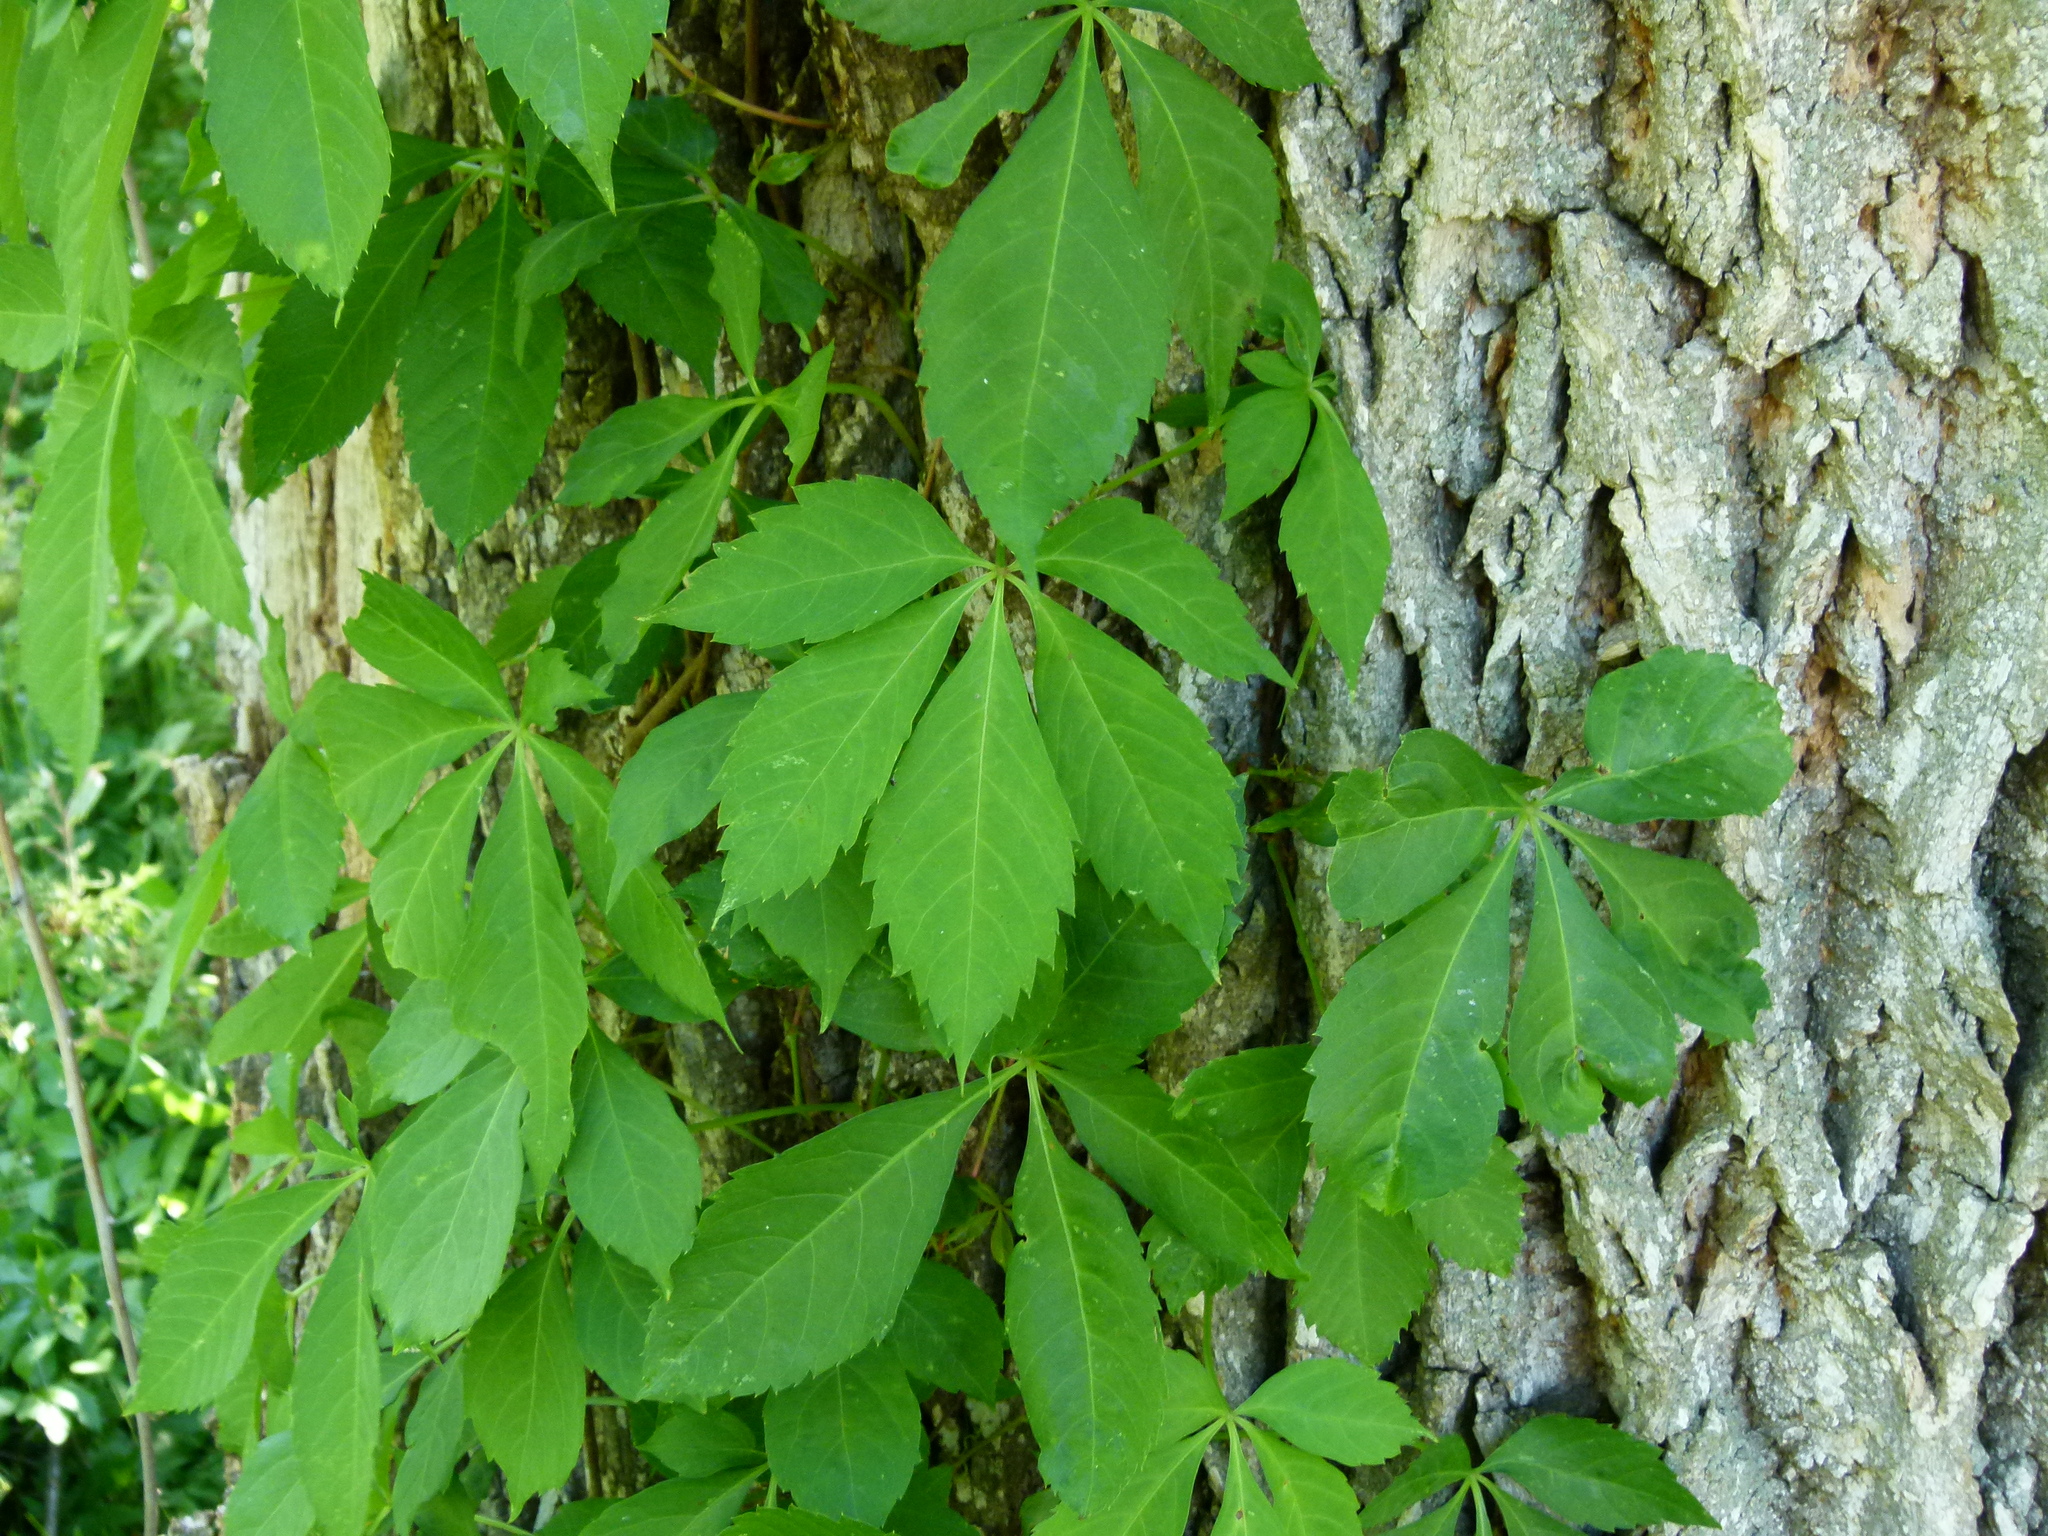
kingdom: Plantae
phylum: Tracheophyta
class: Magnoliopsida
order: Vitales
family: Vitaceae
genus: Parthenocissus
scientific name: Parthenocissus quinquefolia
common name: Virginia-creeper
